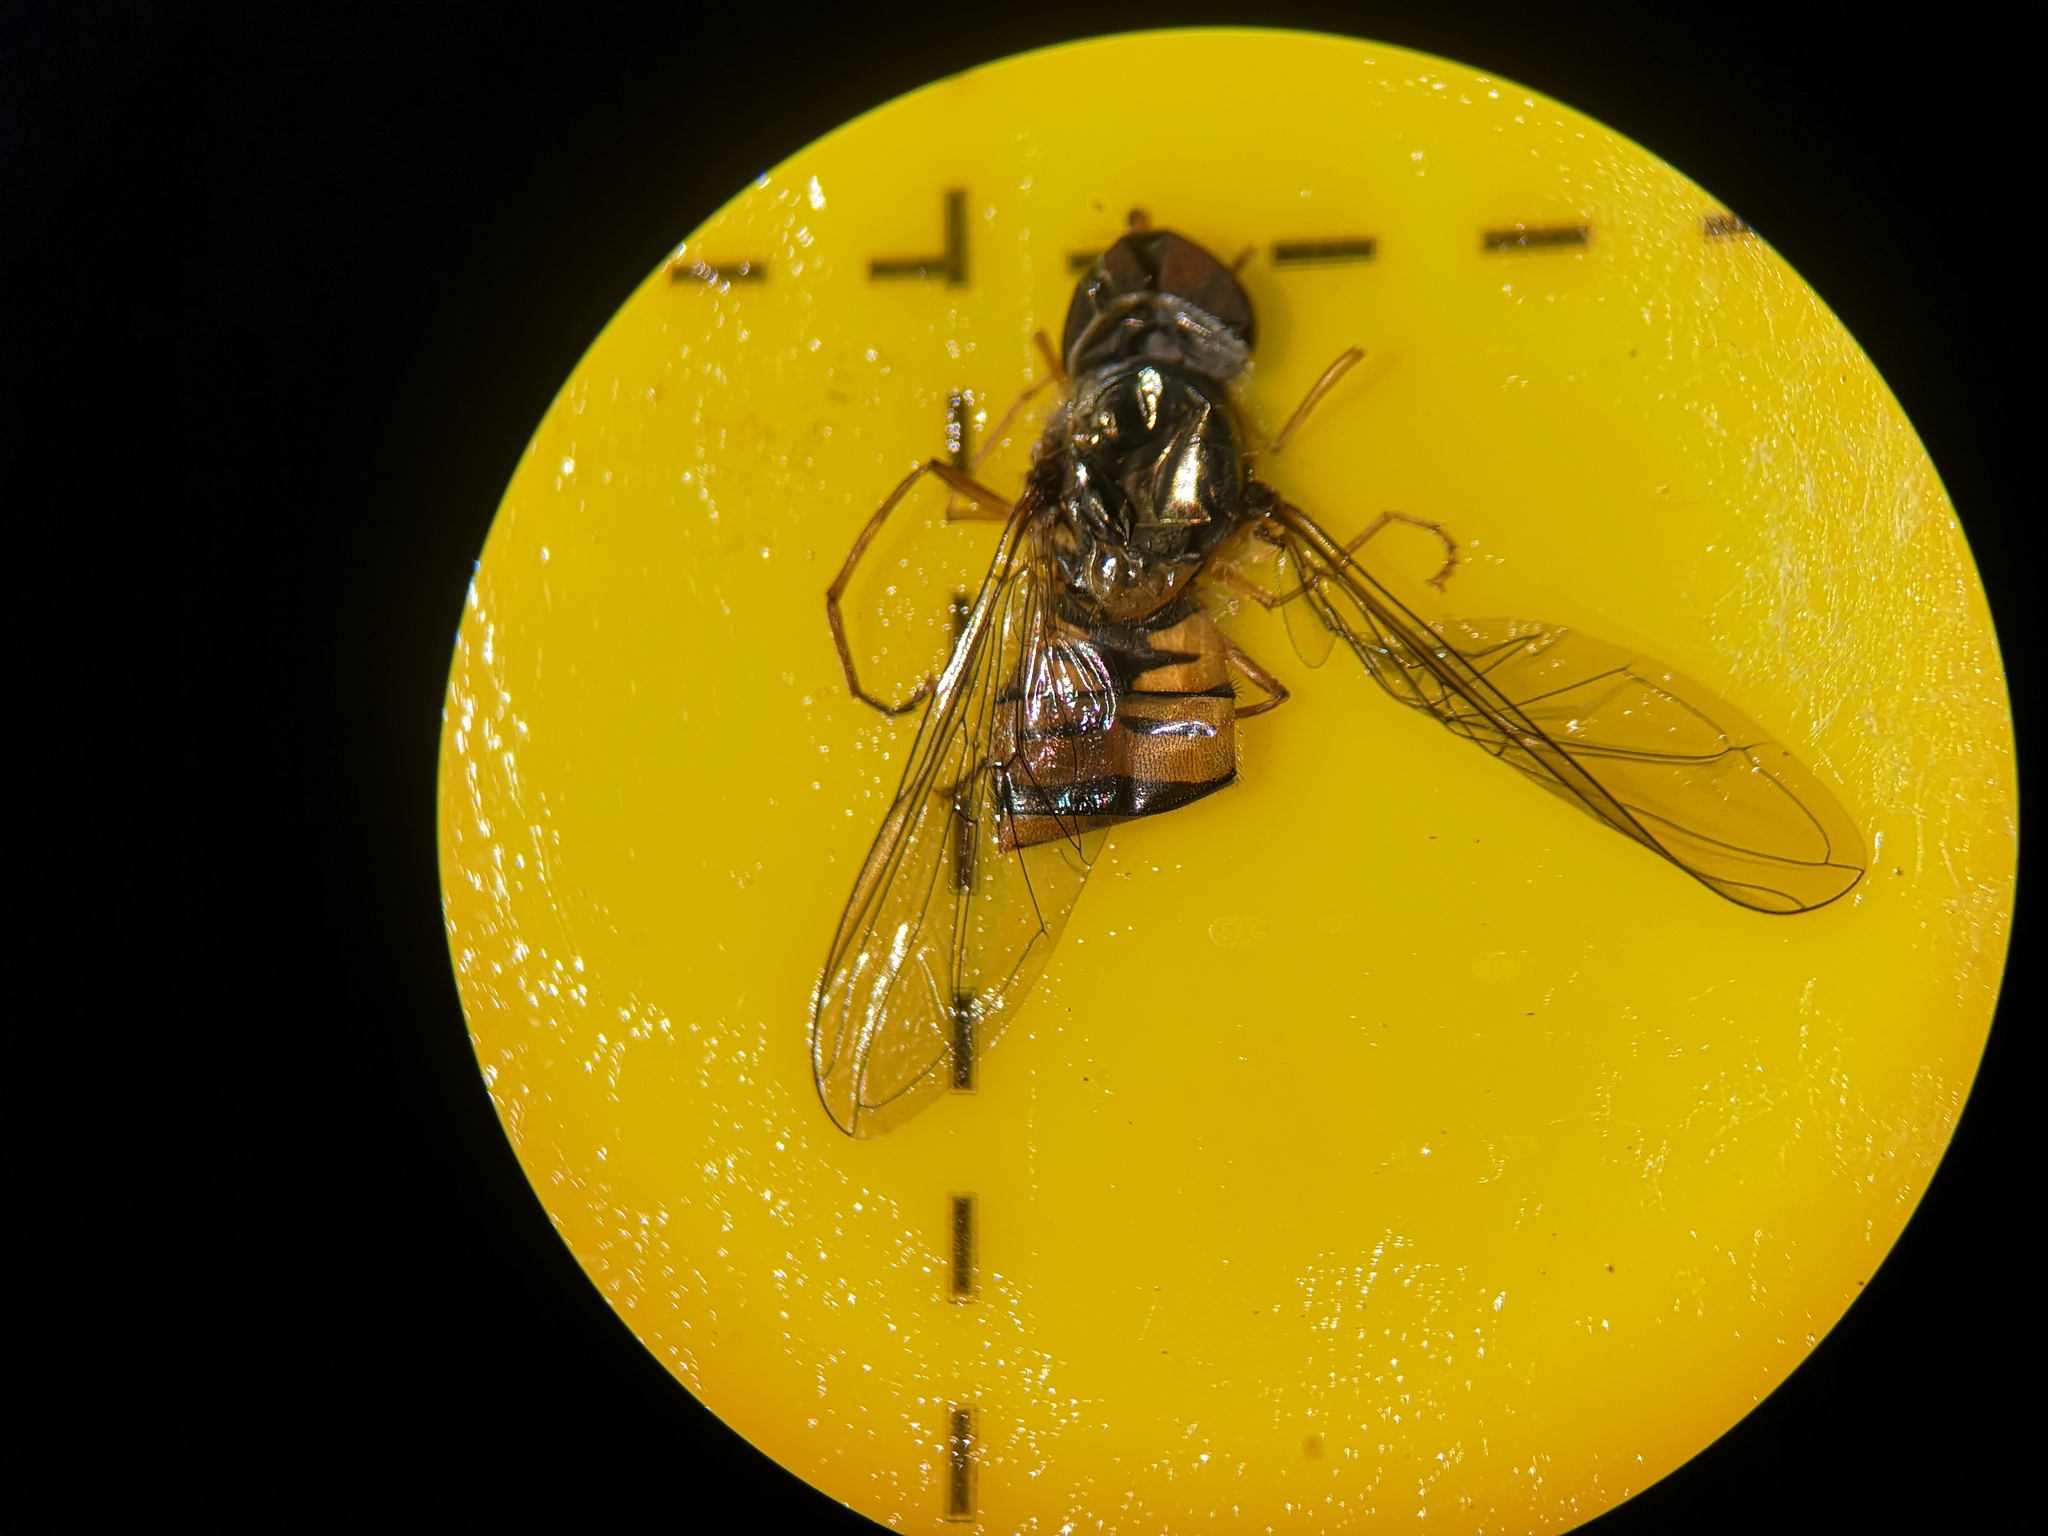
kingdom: Animalia
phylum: Arthropoda
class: Insecta
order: Diptera
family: Syrphidae
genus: Episyrphus
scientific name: Episyrphus balteatus
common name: Marmalade hoverfly
